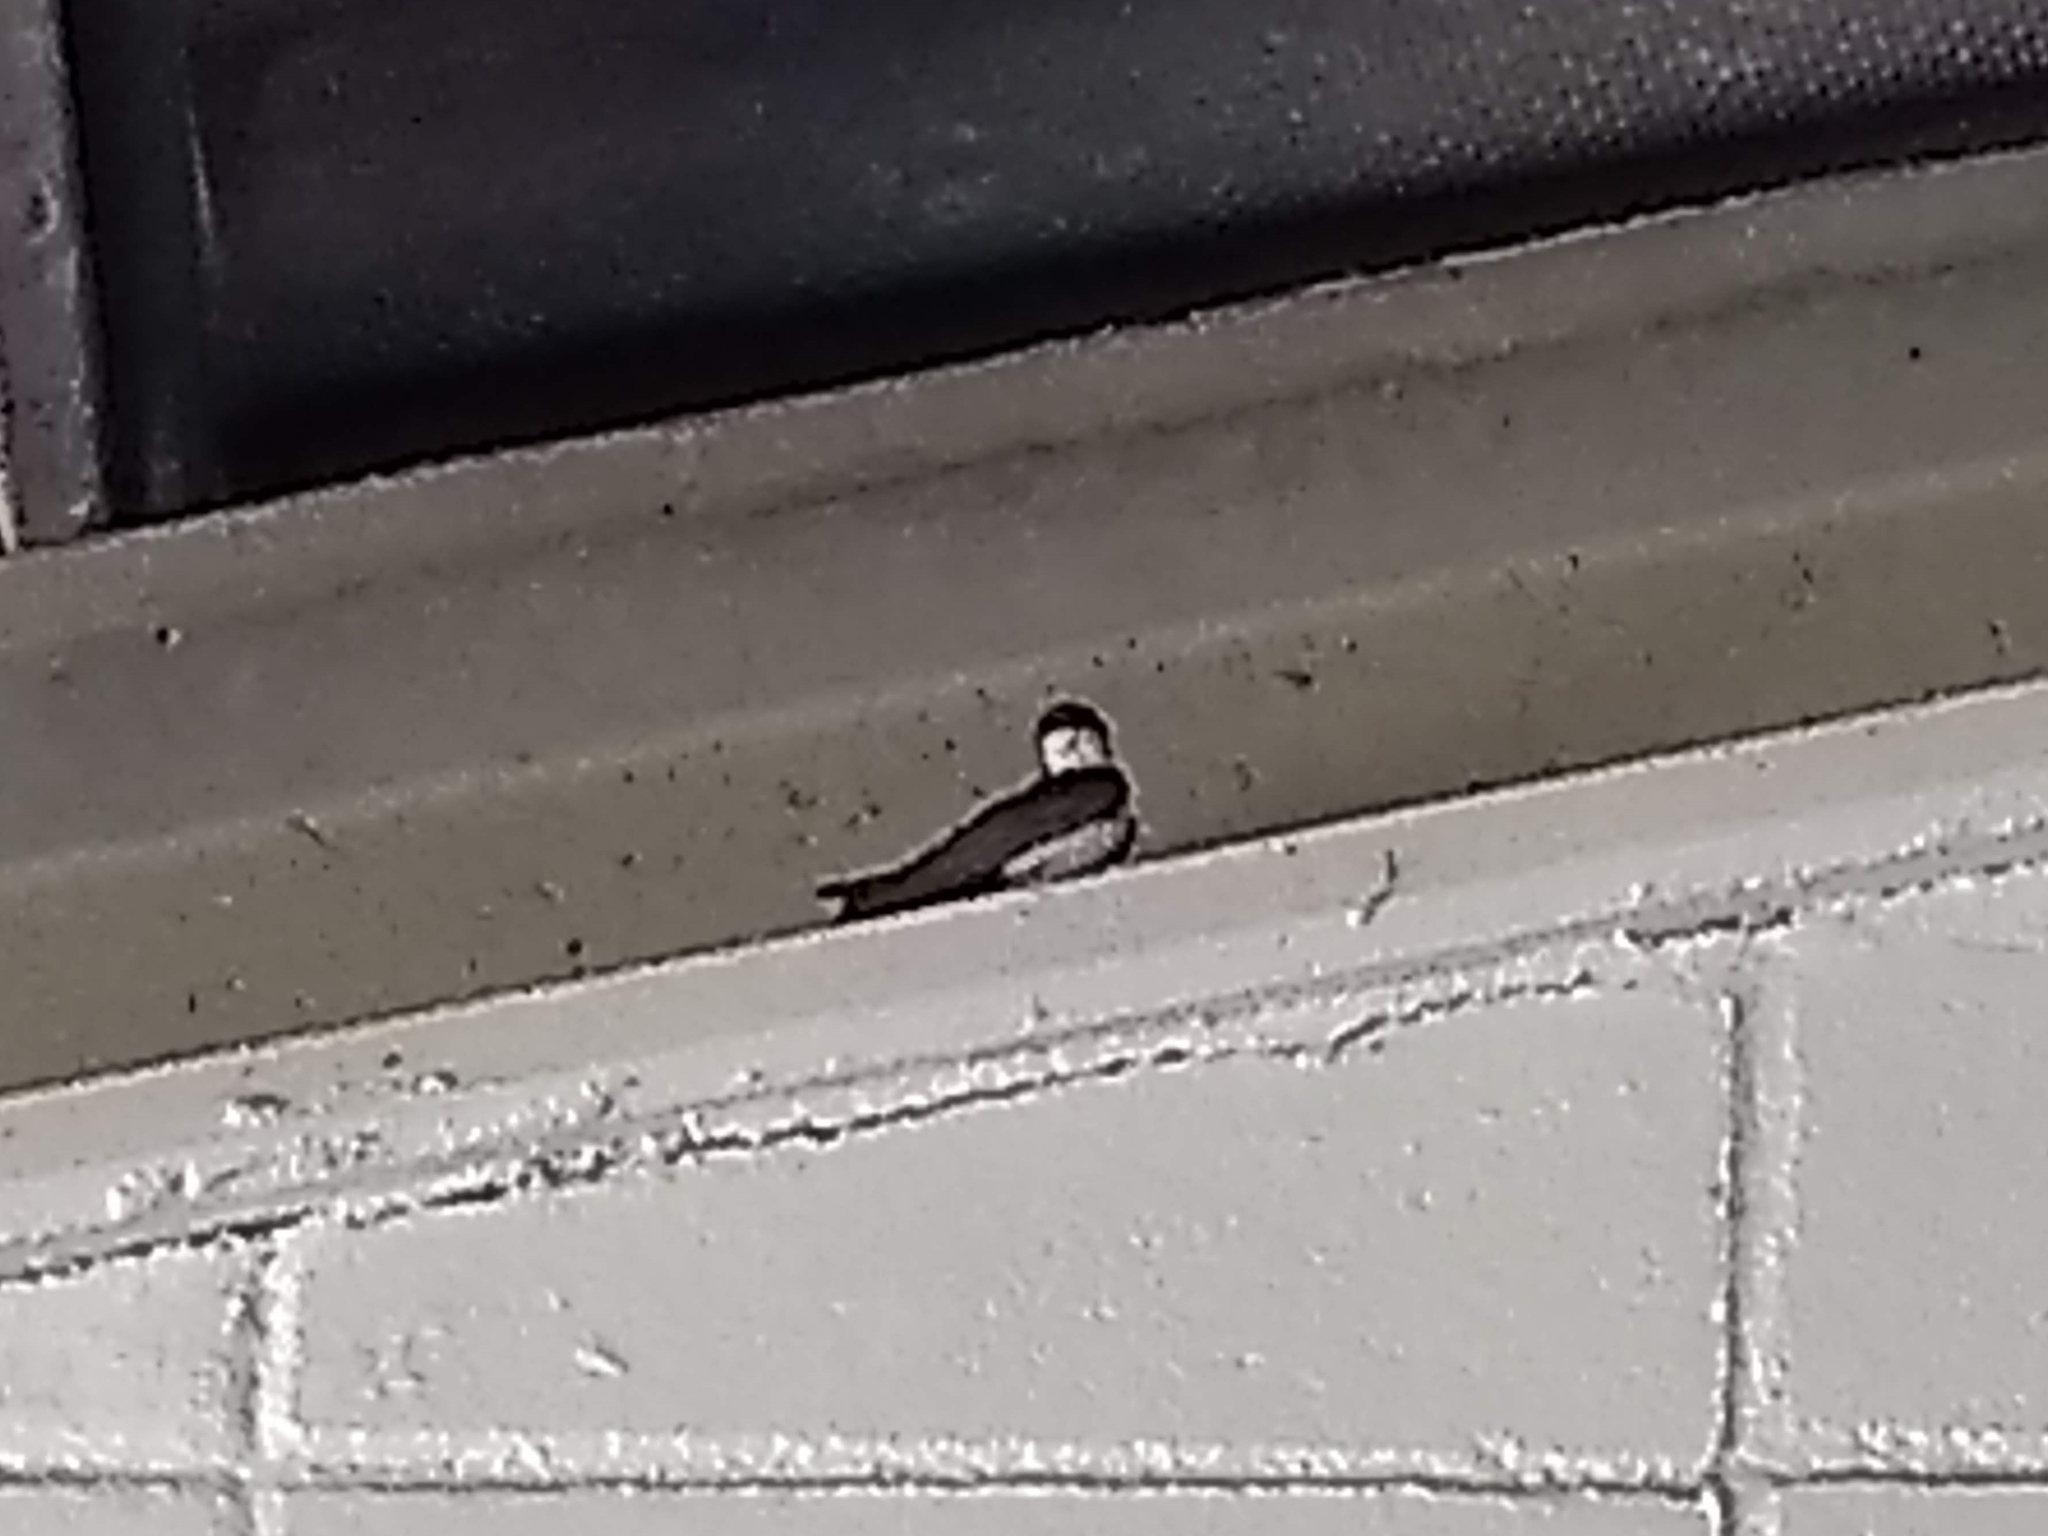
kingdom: Animalia
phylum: Chordata
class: Aves
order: Passeriformes
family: Hirundinidae
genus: Notiochelidon
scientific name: Notiochelidon cyanoleuca
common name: Blue-and-white swallow
